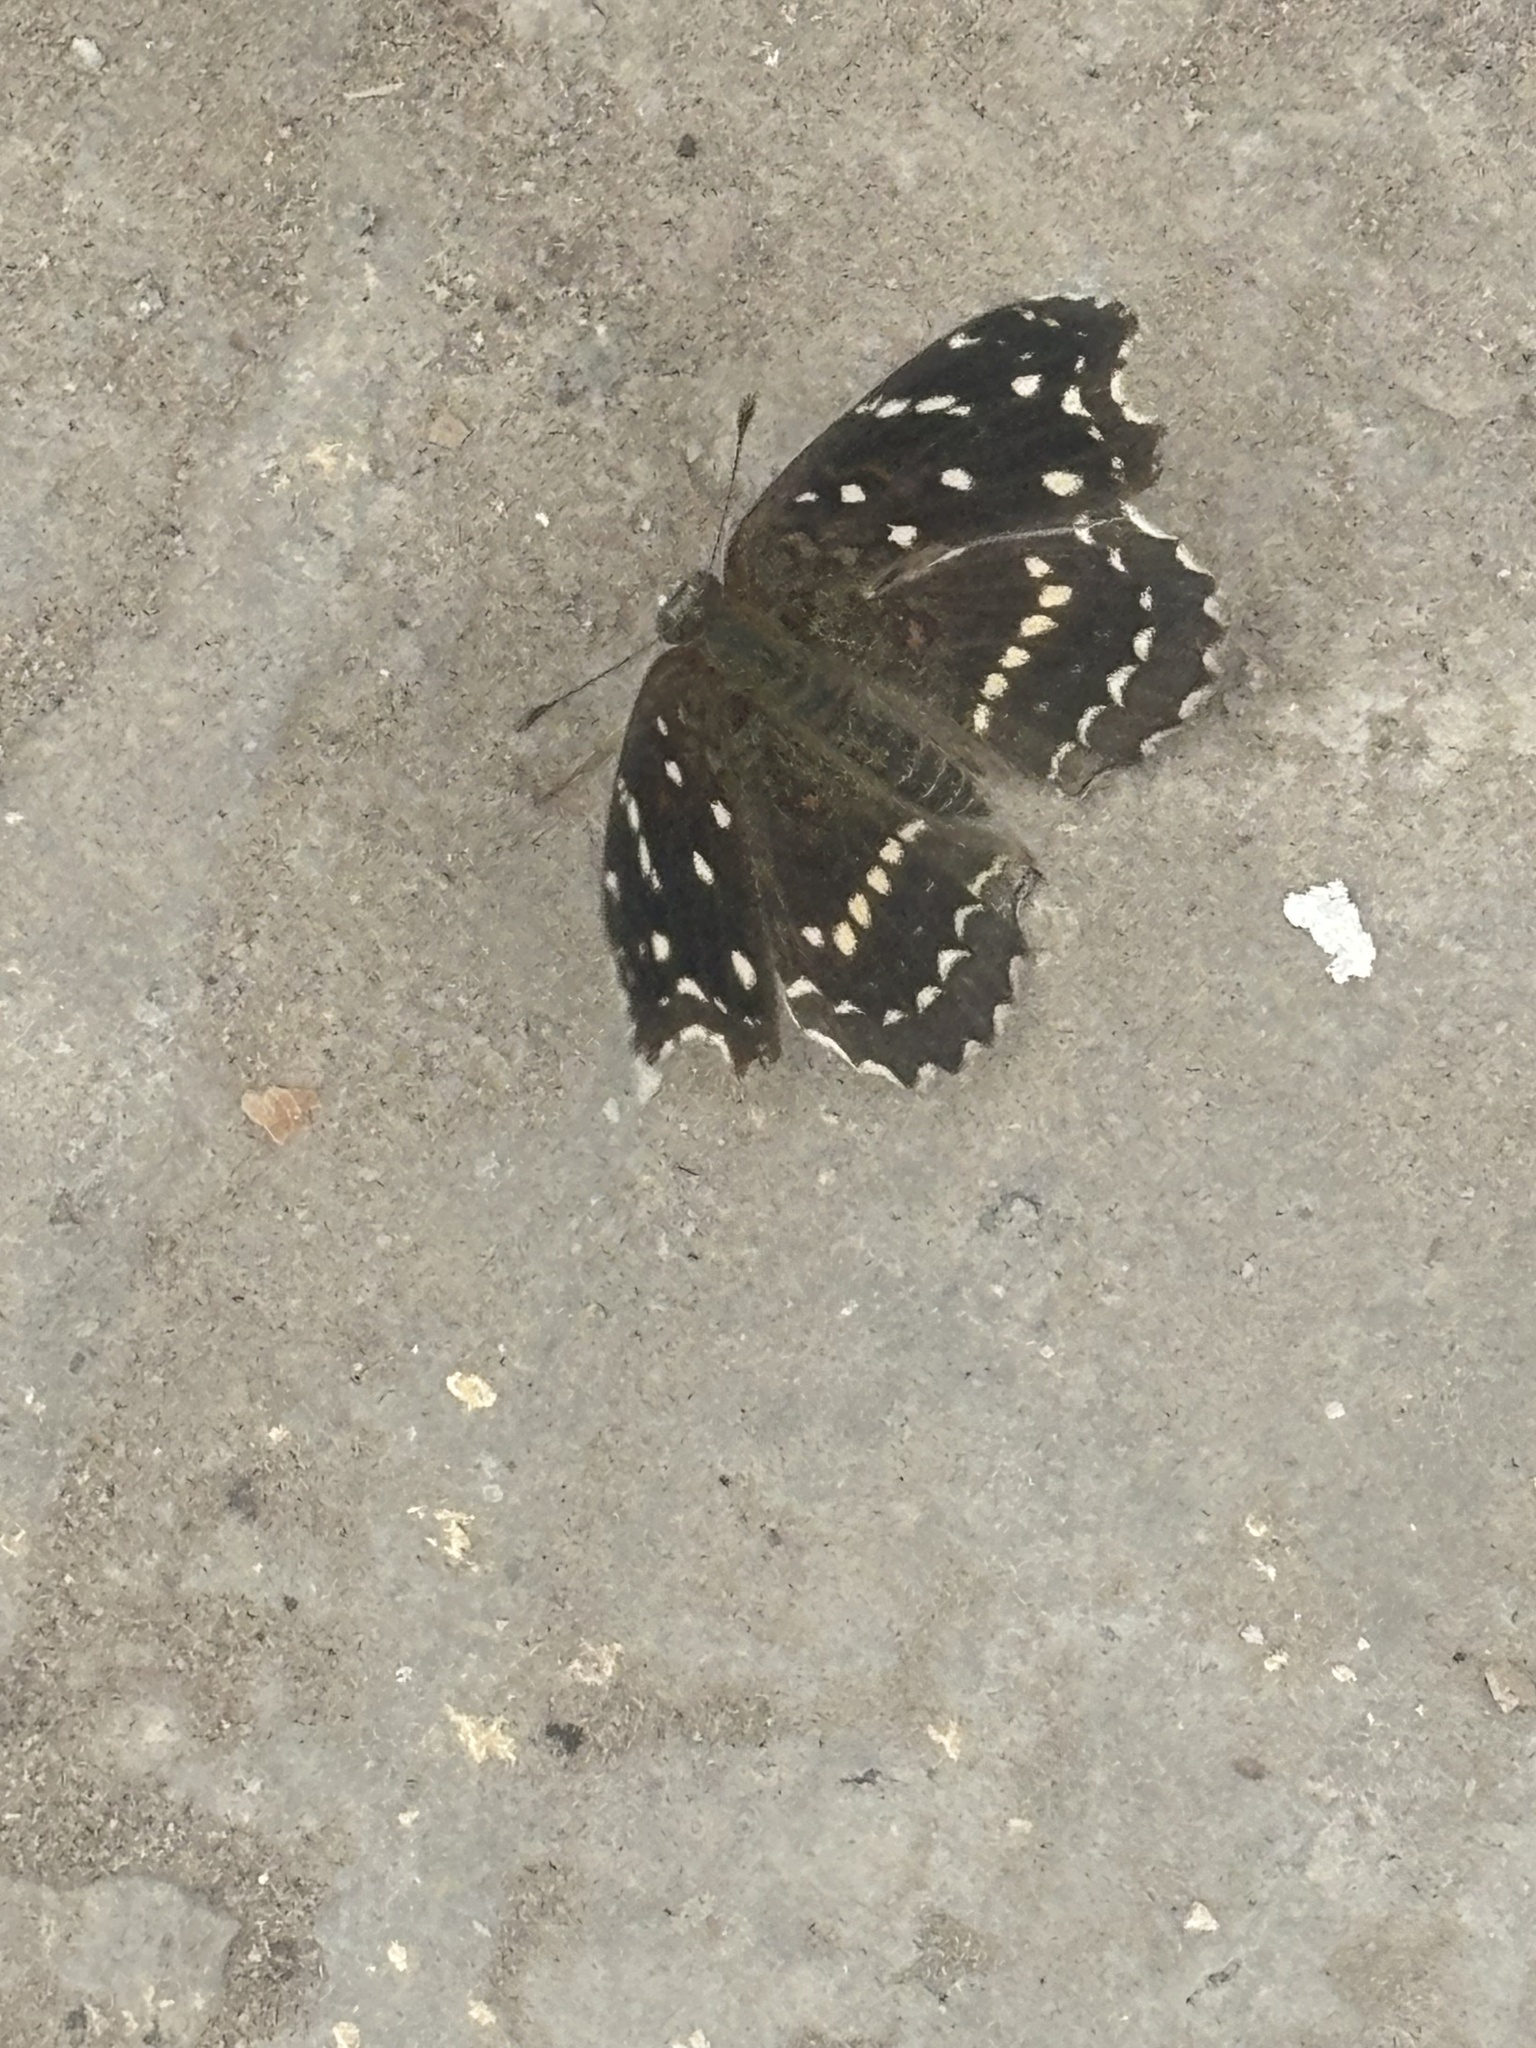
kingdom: Animalia
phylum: Arthropoda
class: Insecta
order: Lepidoptera
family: Nymphalidae
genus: Anthanassa
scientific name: Anthanassa texana
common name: Texan crescent
